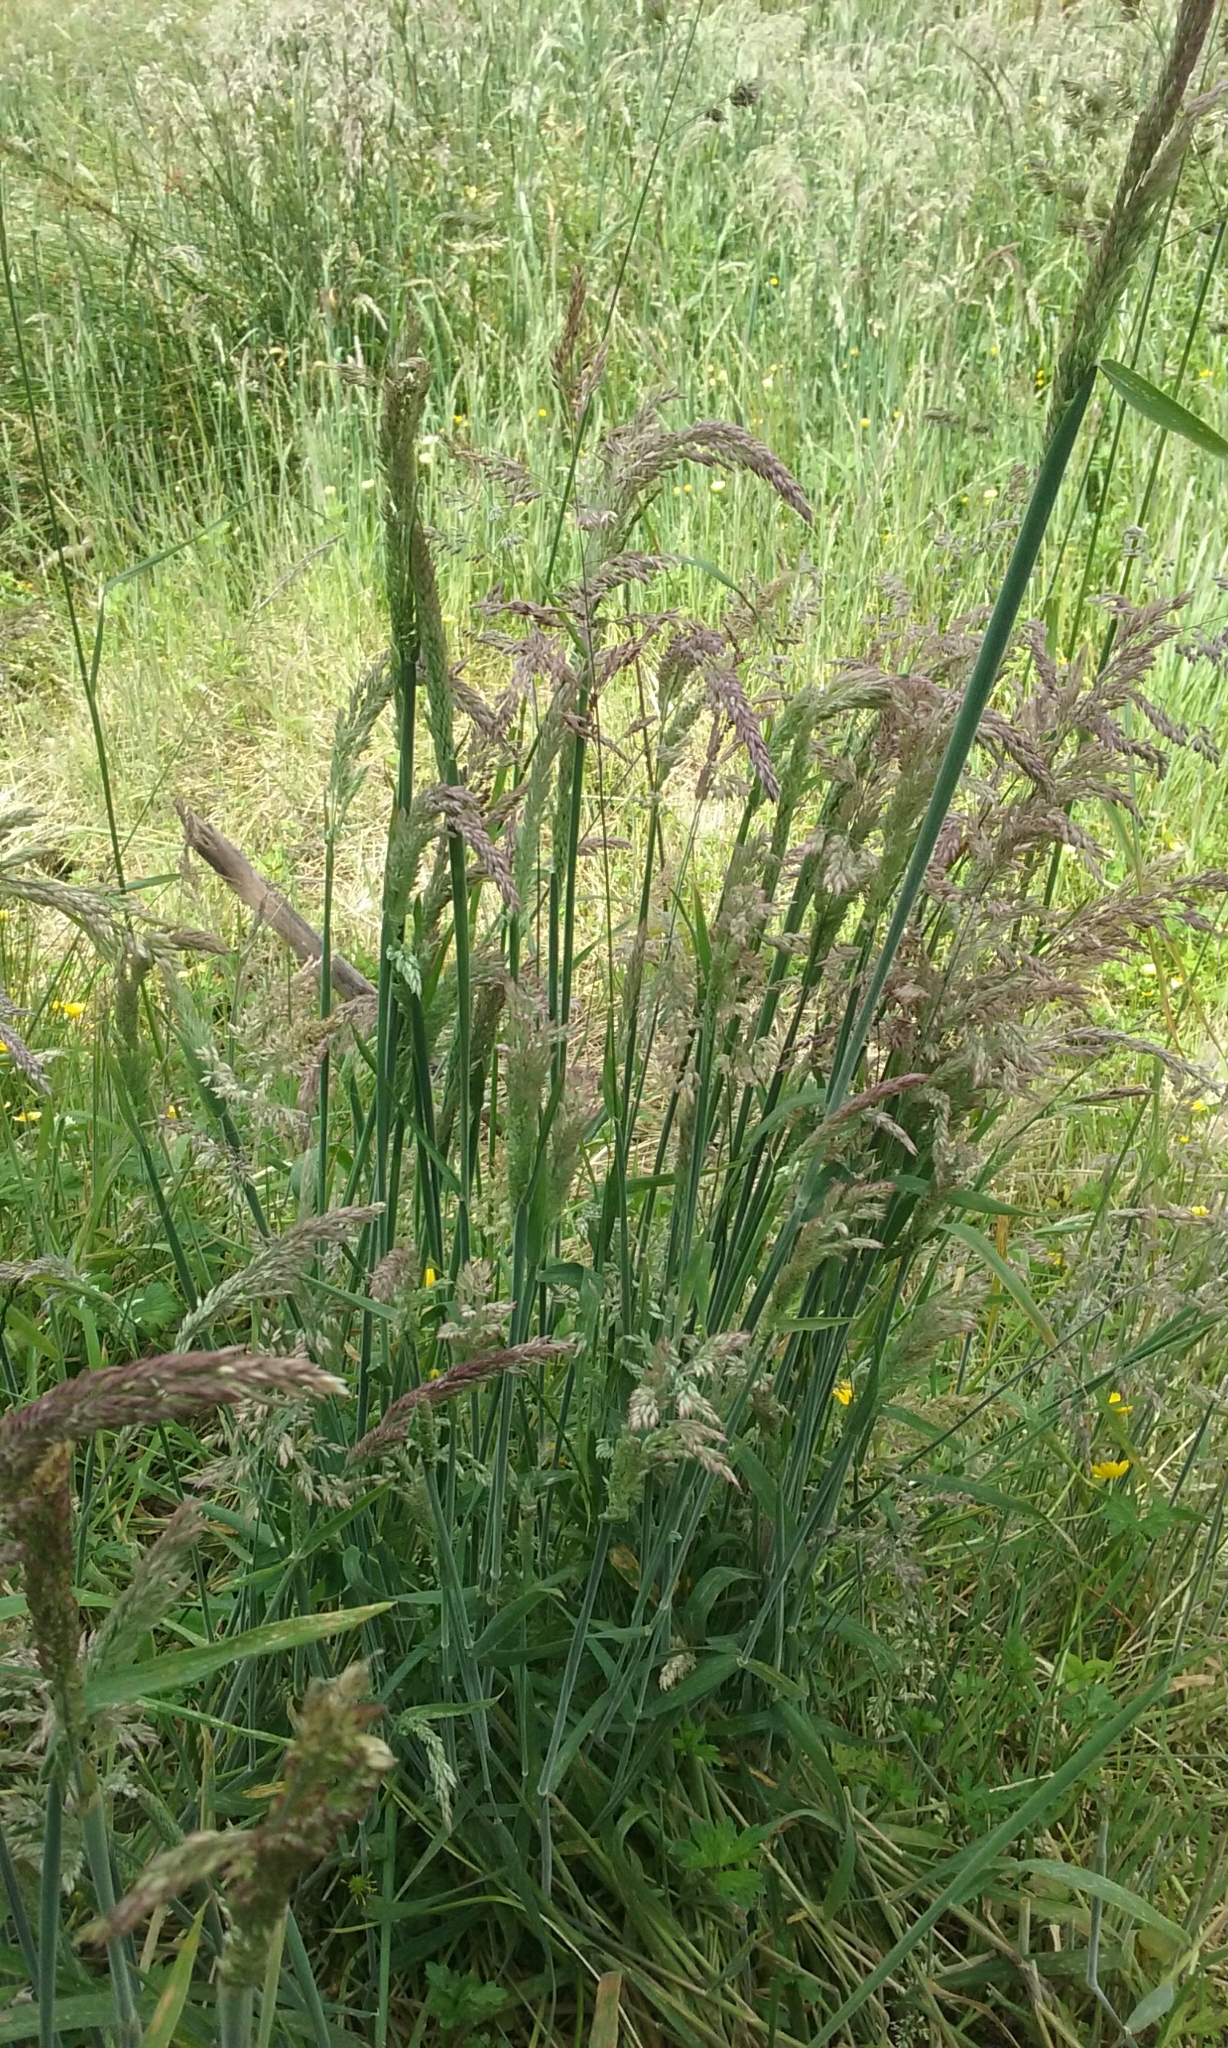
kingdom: Plantae
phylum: Tracheophyta
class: Liliopsida
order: Poales
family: Poaceae
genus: Holcus
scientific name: Holcus lanatus
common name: Yorkshire-fog
